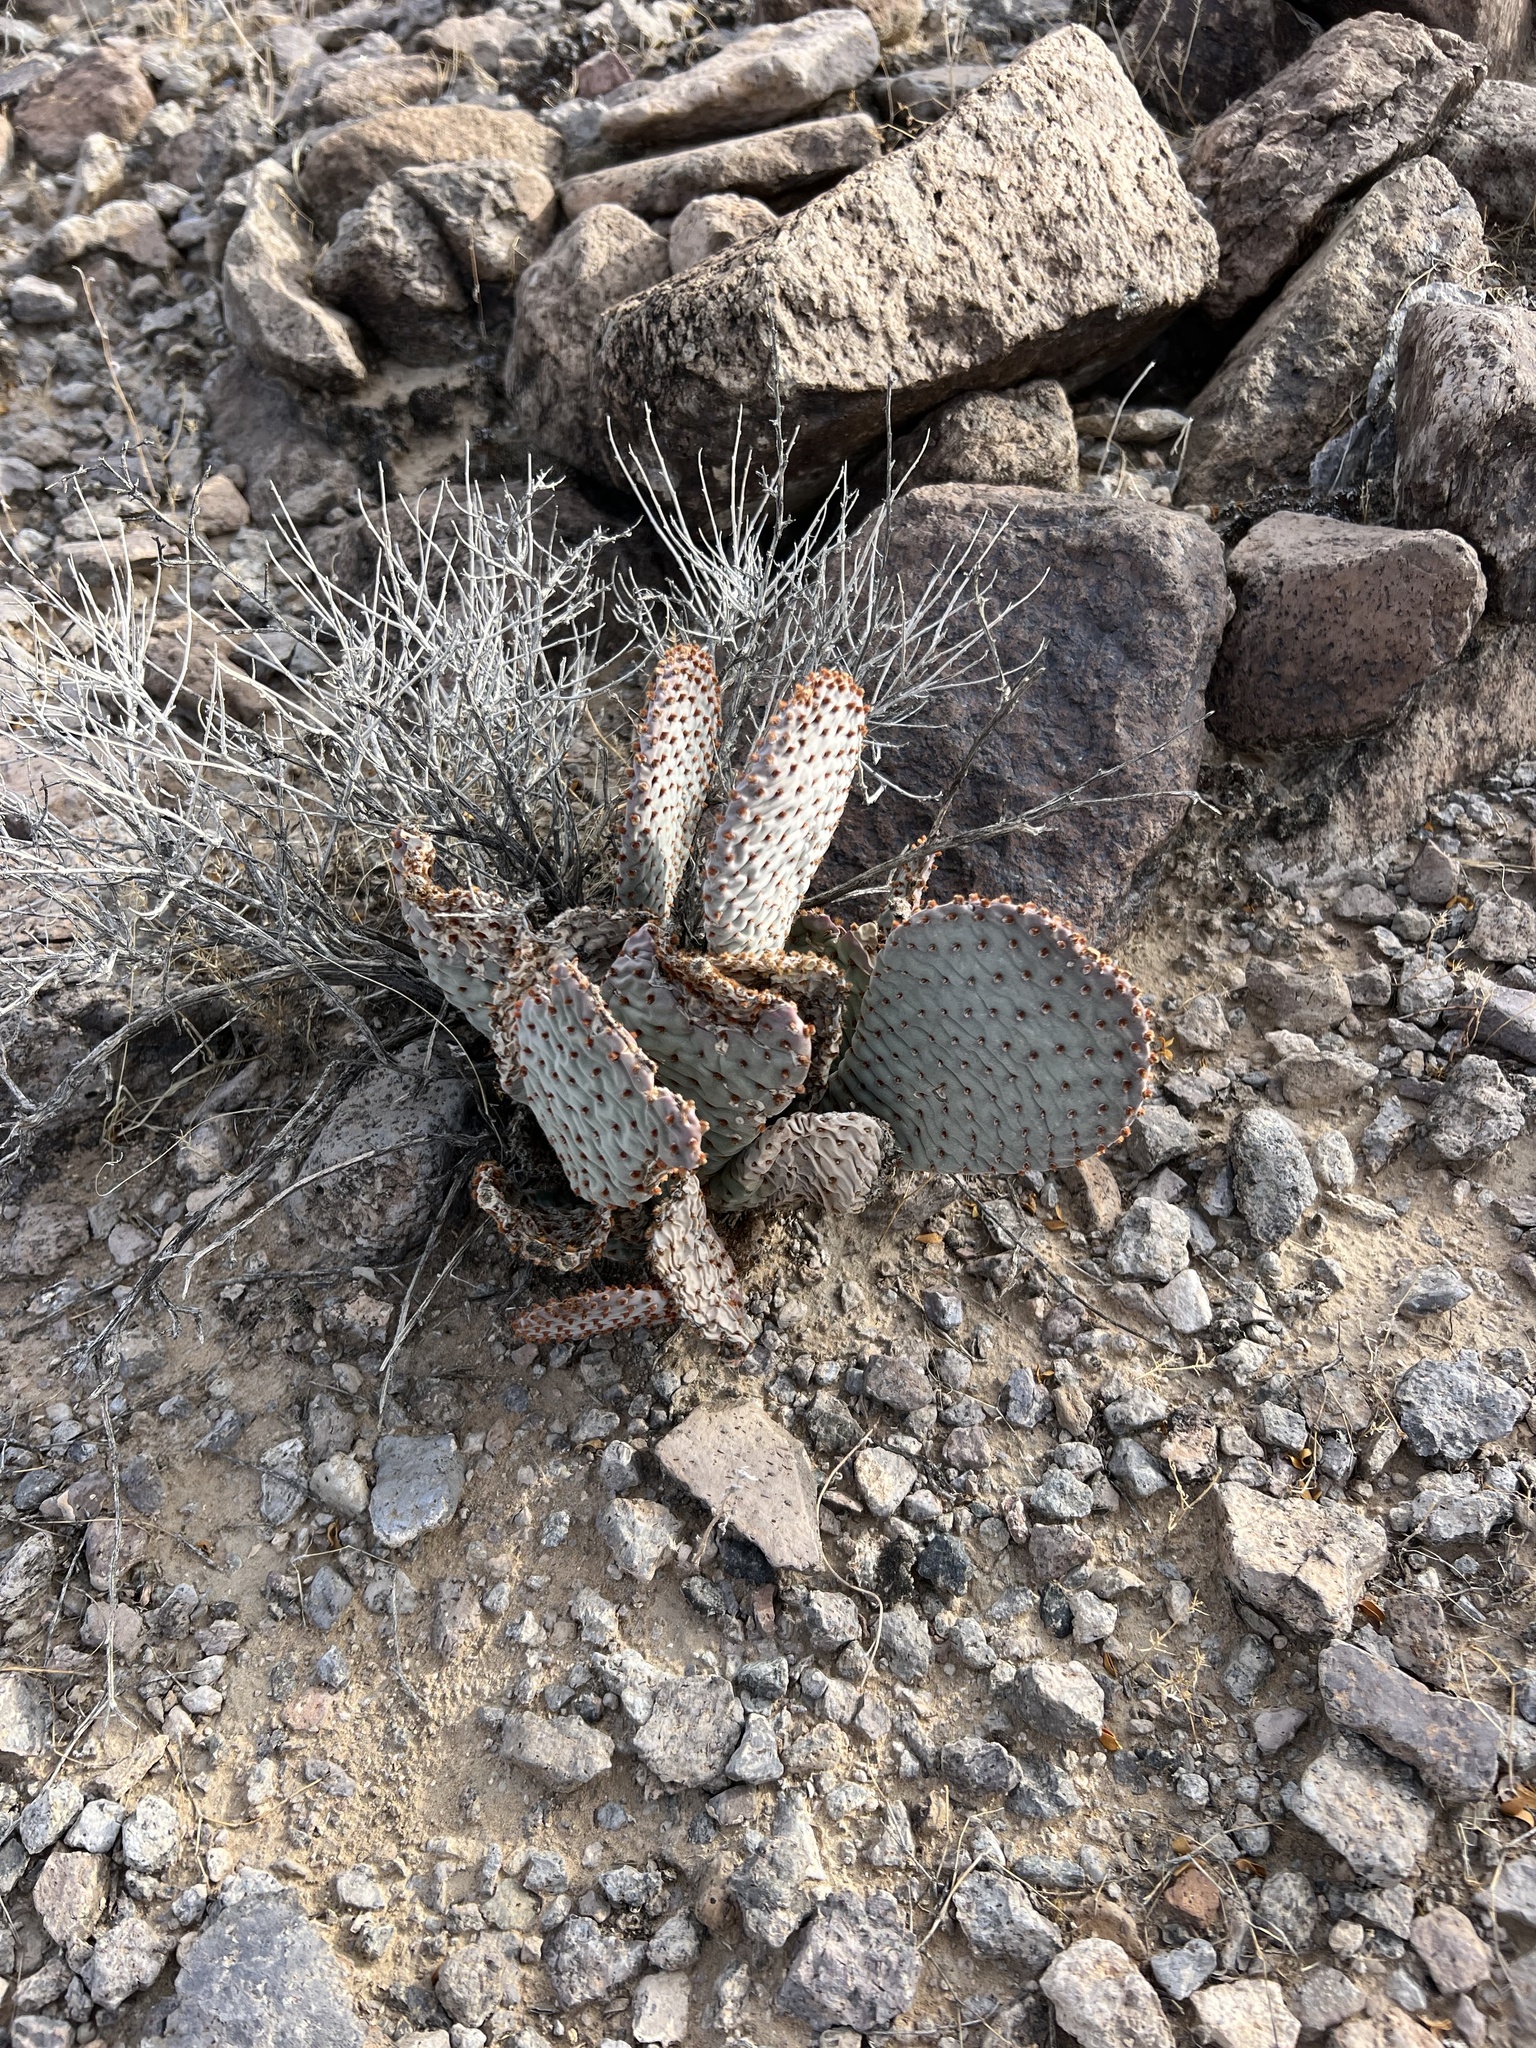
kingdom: Plantae
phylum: Tracheophyta
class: Magnoliopsida
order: Caryophyllales
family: Cactaceae
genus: Opuntia
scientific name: Opuntia basilaris
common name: Beavertail prickly-pear
